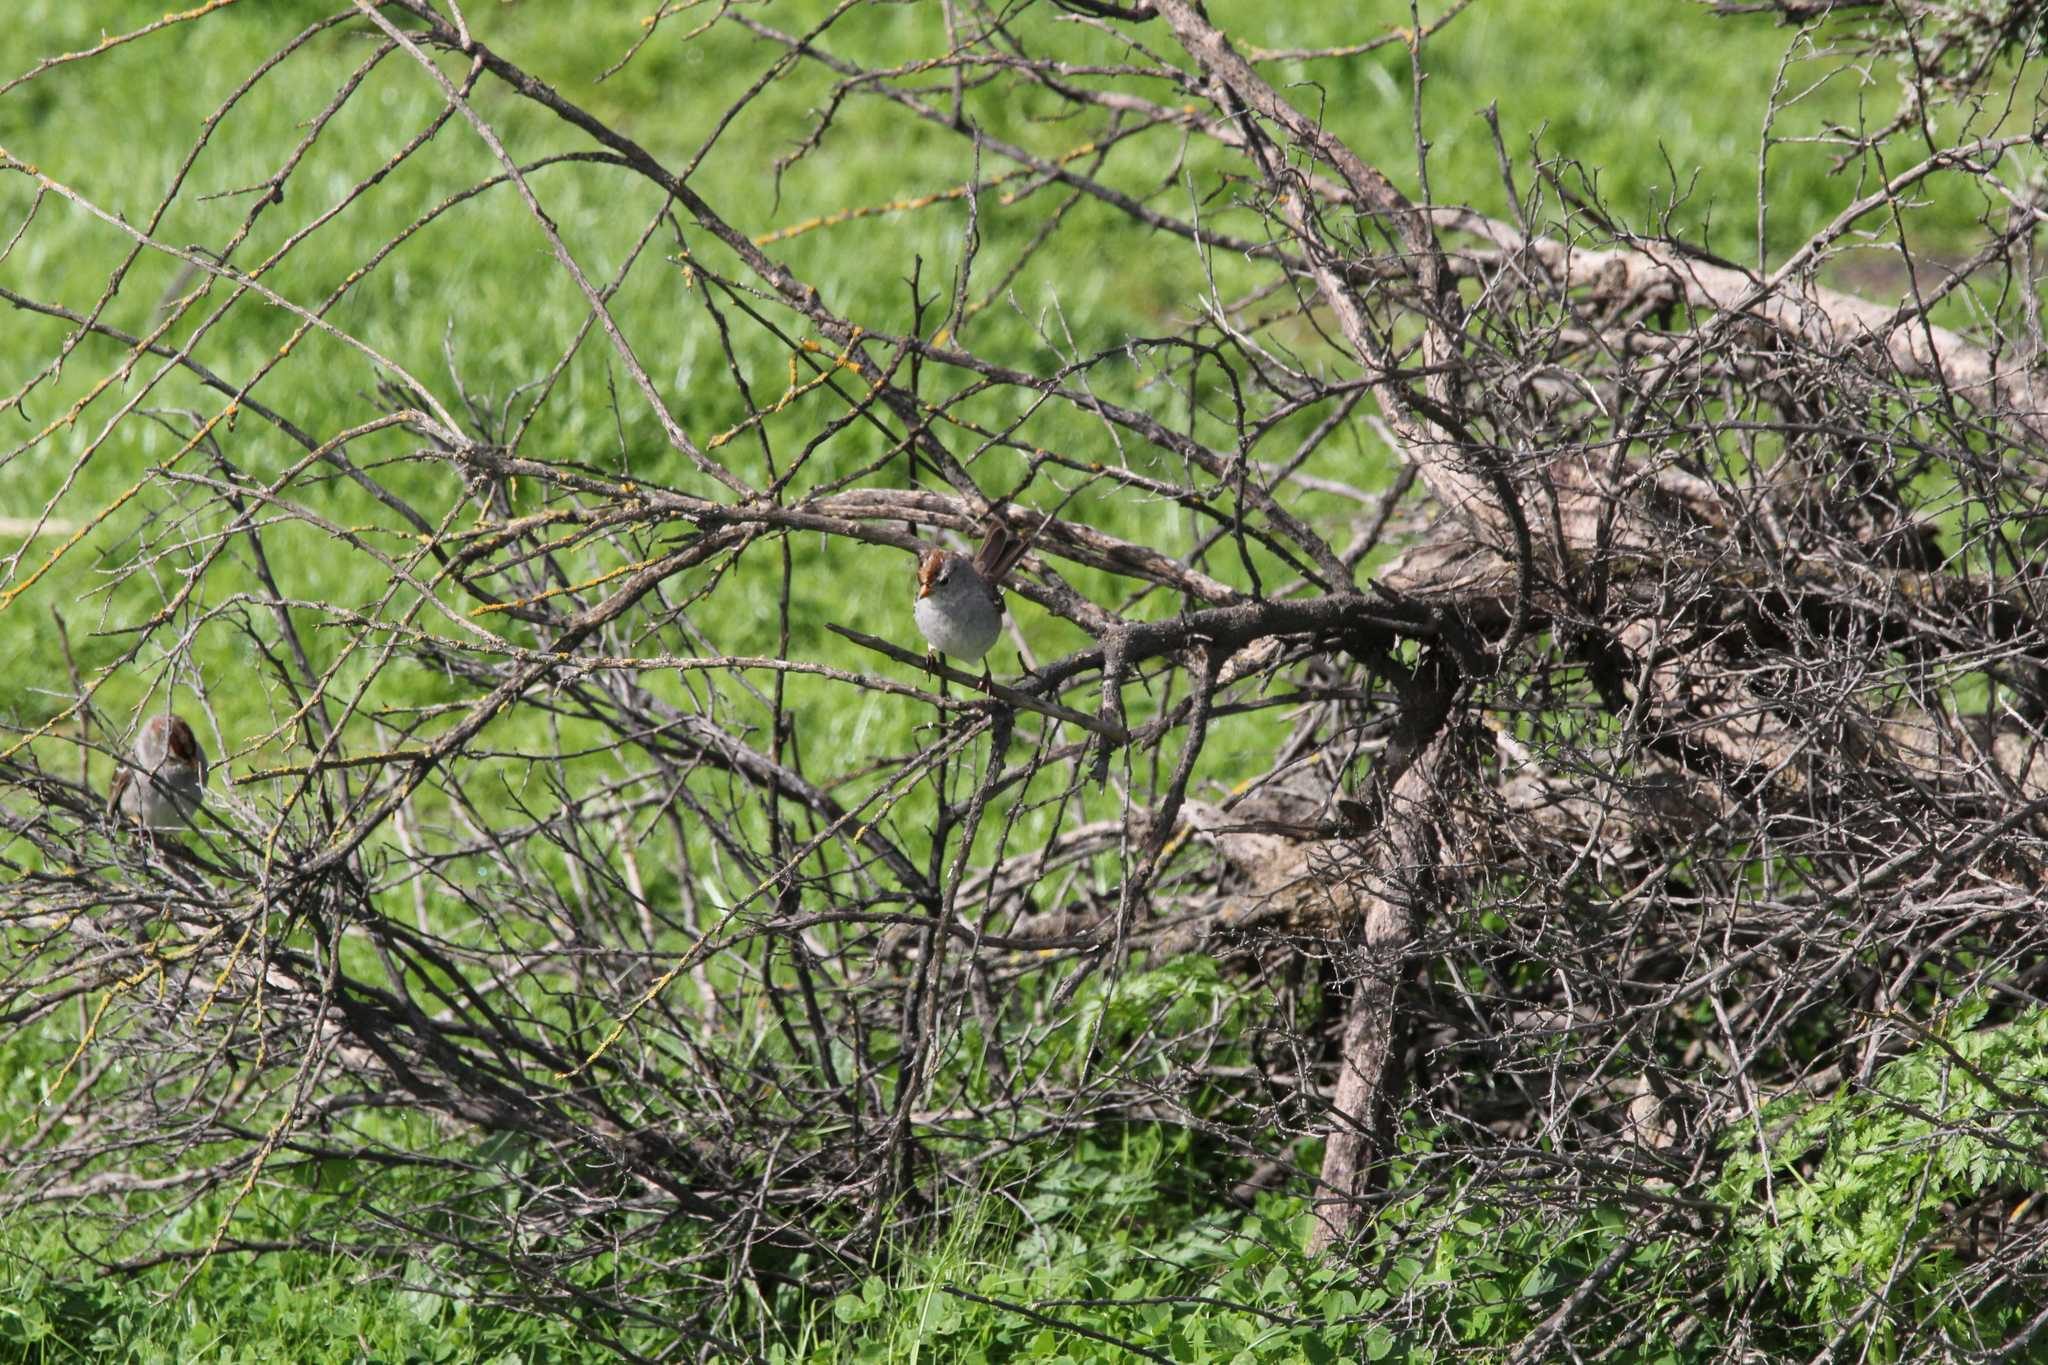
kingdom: Animalia
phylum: Chordata
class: Aves
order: Passeriformes
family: Passerellidae
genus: Zonotrichia
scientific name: Zonotrichia leucophrys
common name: White-crowned sparrow
